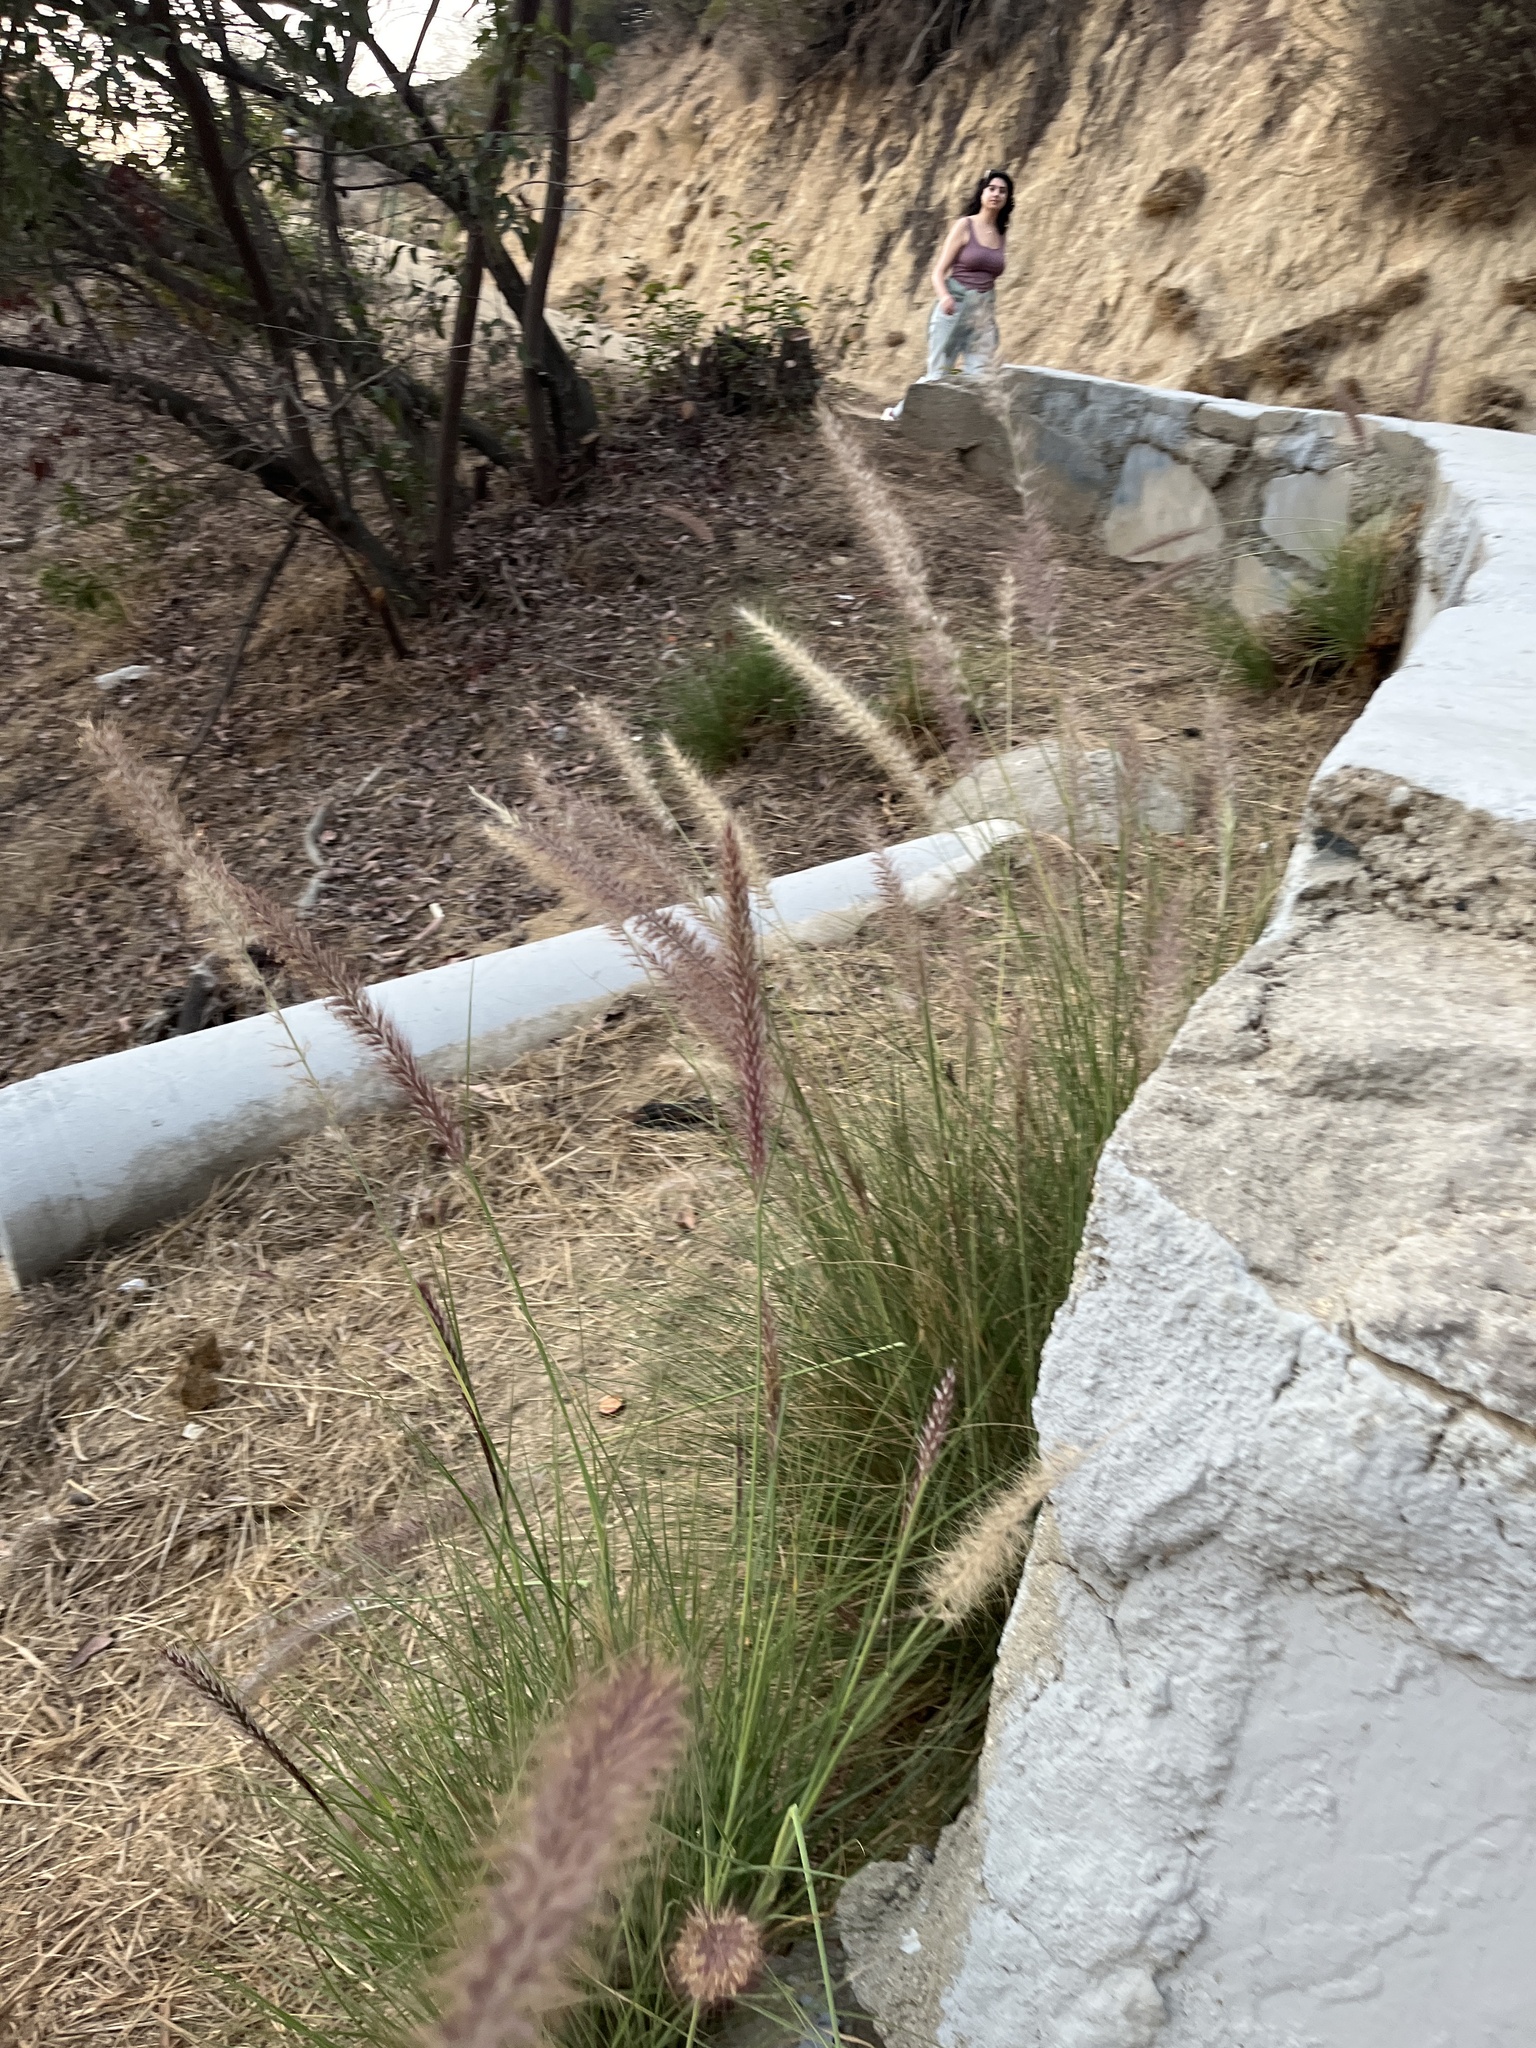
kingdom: Plantae
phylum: Tracheophyta
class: Liliopsida
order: Poales
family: Poaceae
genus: Cenchrus
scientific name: Cenchrus setaceus
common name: Crimson fountaingrass
